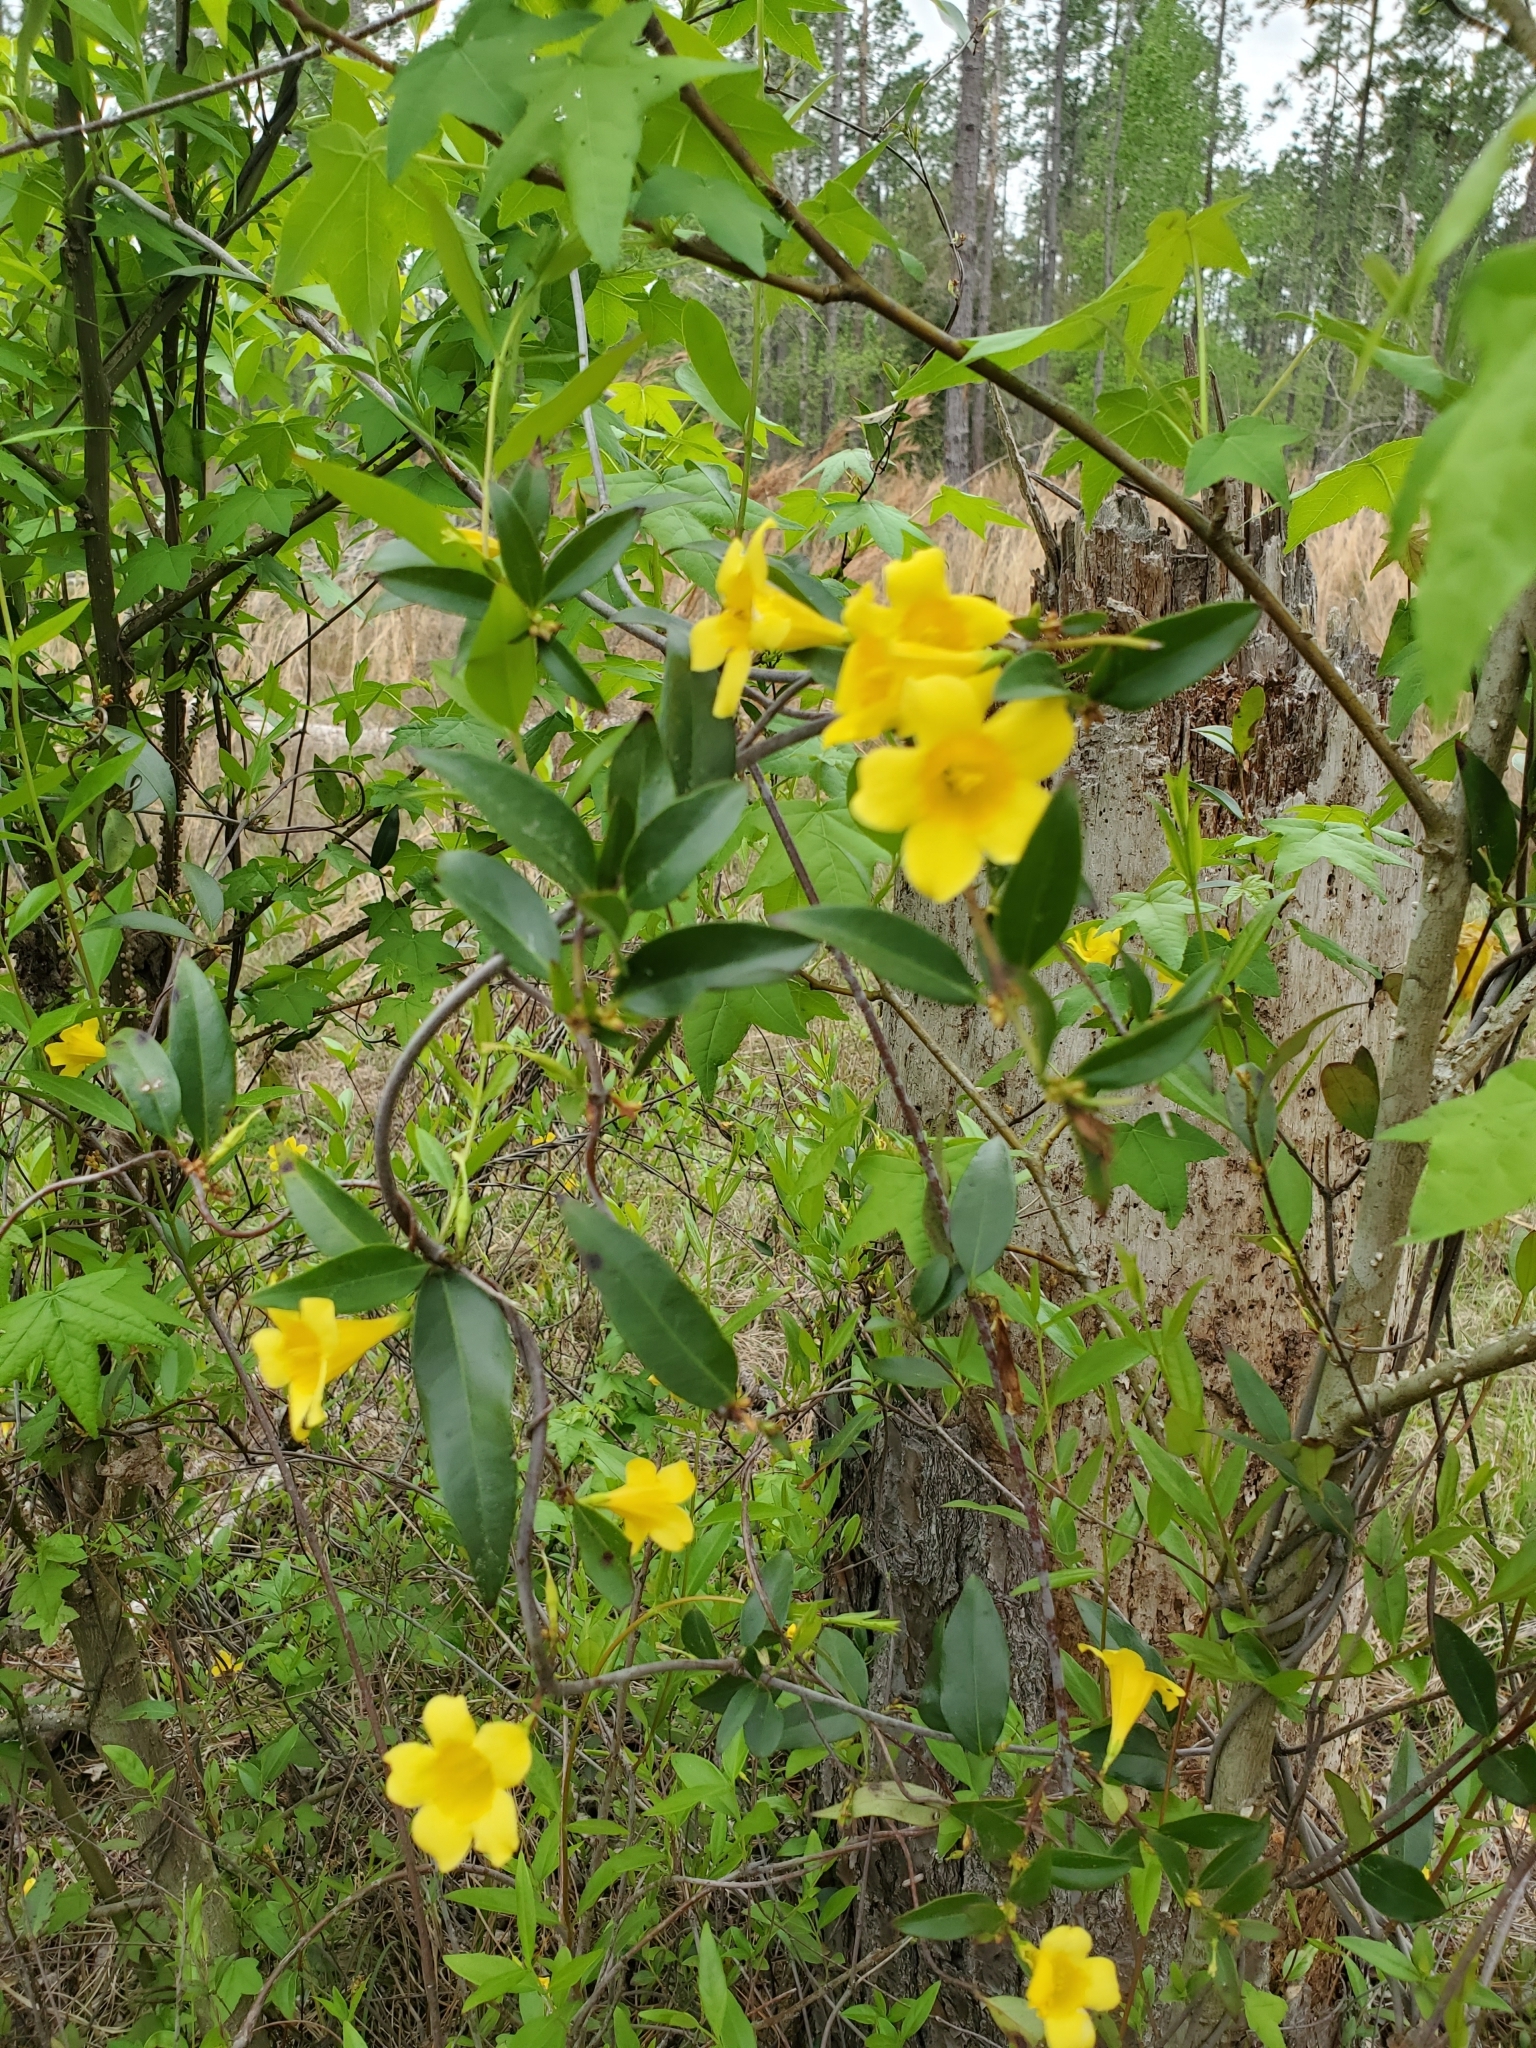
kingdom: Plantae
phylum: Tracheophyta
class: Magnoliopsida
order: Gentianales
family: Gelsemiaceae
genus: Gelsemium
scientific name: Gelsemium sempervirens
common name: Carolina-jasmine
